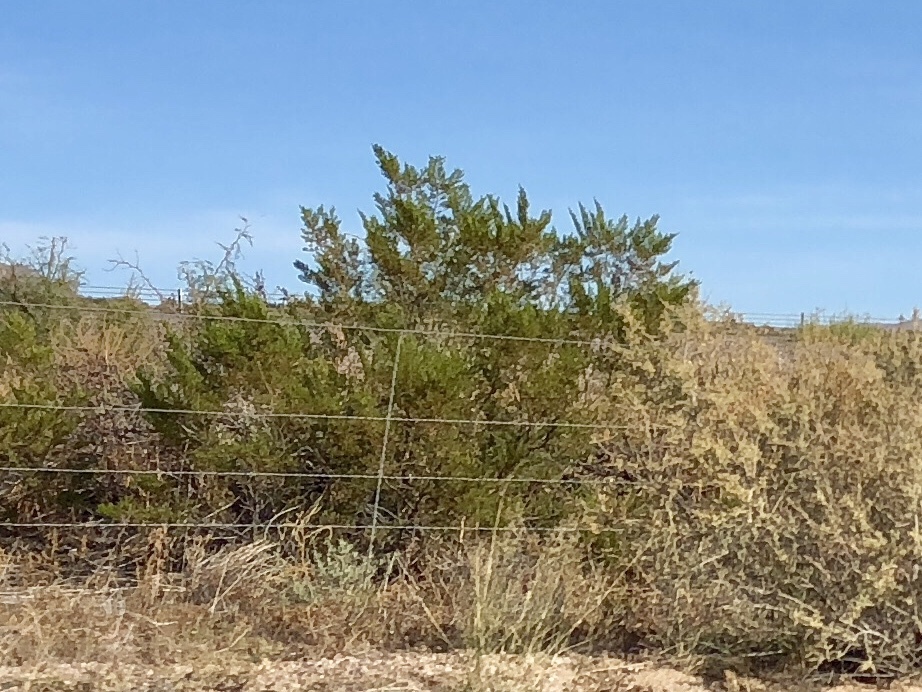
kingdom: Plantae
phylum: Tracheophyta
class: Magnoliopsida
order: Zygophyllales
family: Zygophyllaceae
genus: Larrea
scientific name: Larrea tridentata
